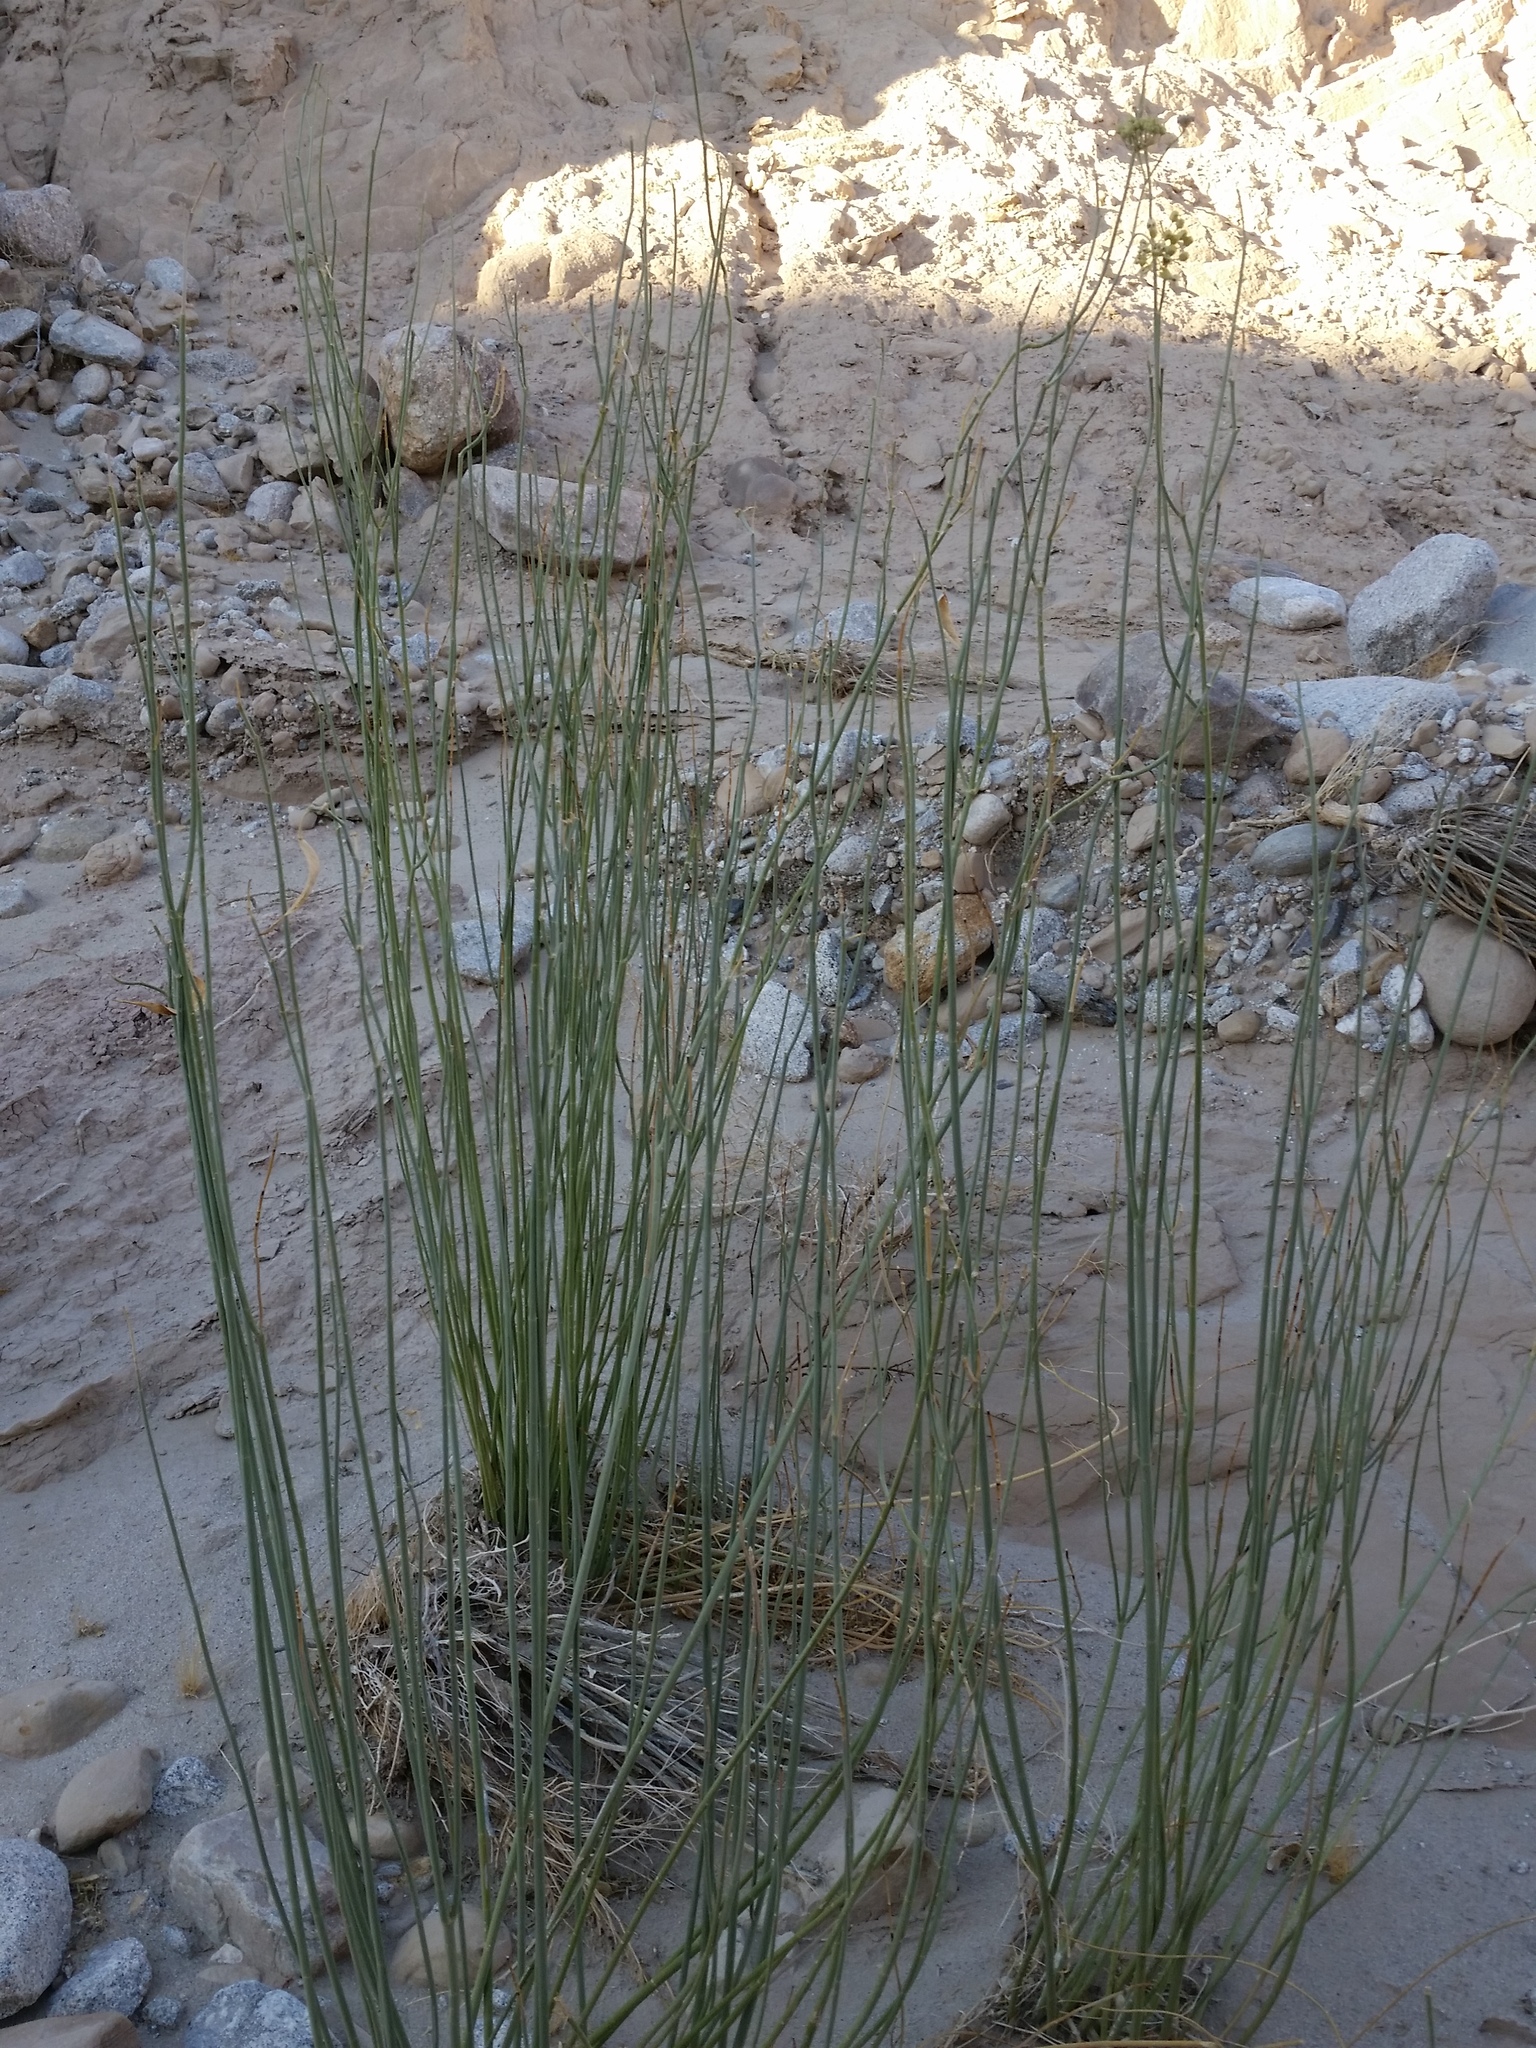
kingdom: Plantae
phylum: Tracheophyta
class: Magnoliopsida
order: Gentianales
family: Apocynaceae
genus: Asclepias
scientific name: Asclepias subulata
